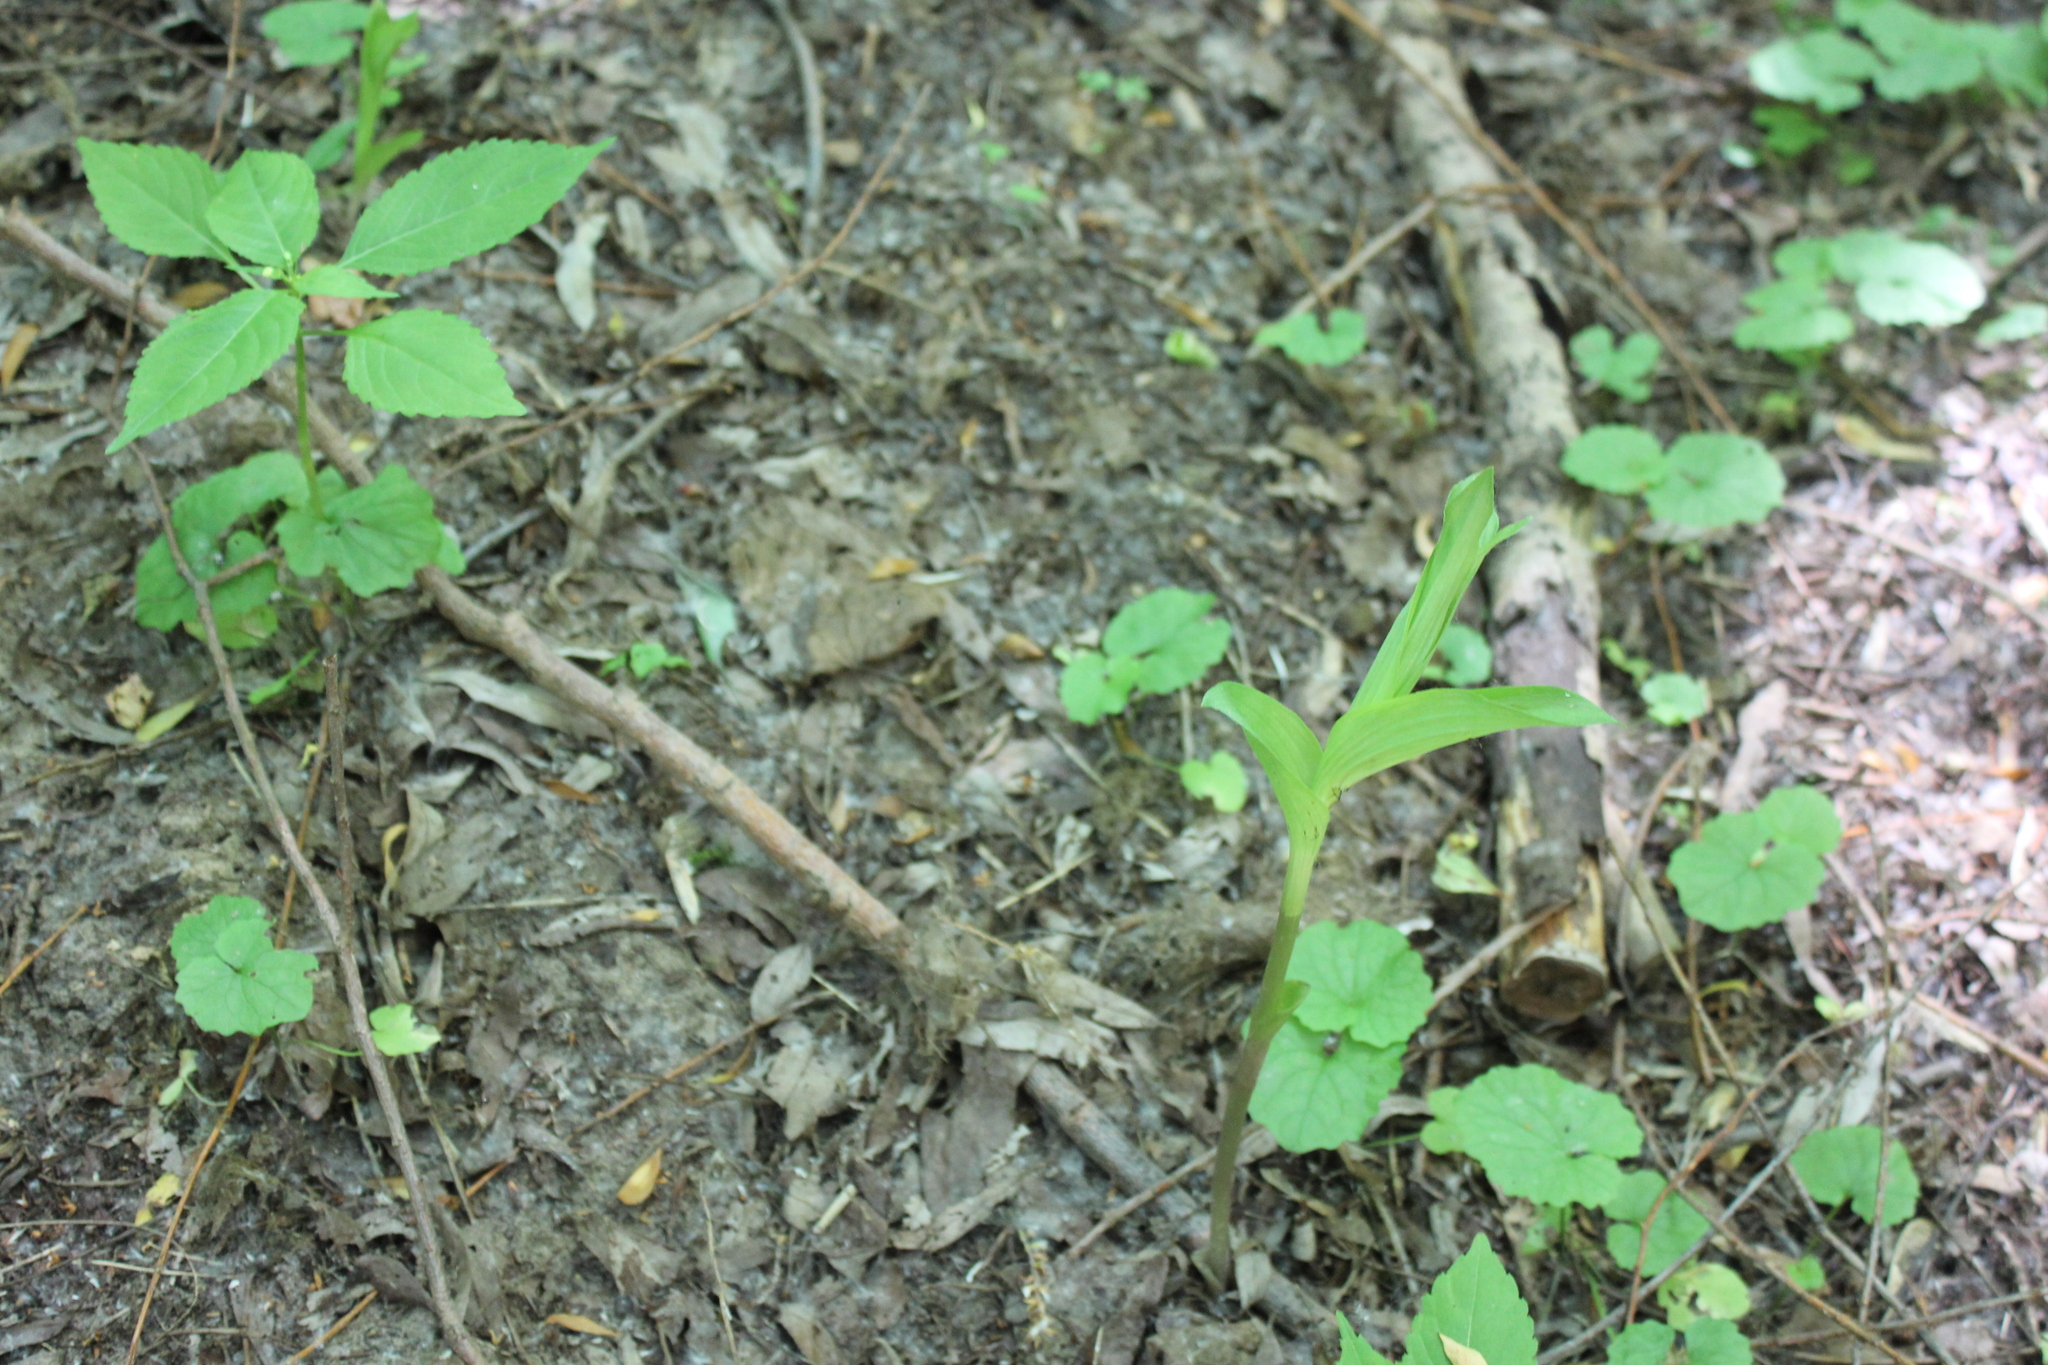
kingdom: Plantae
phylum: Tracheophyta
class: Liliopsida
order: Asparagales
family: Orchidaceae
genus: Epipactis
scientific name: Epipactis helleborine
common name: Broad-leaved helleborine
